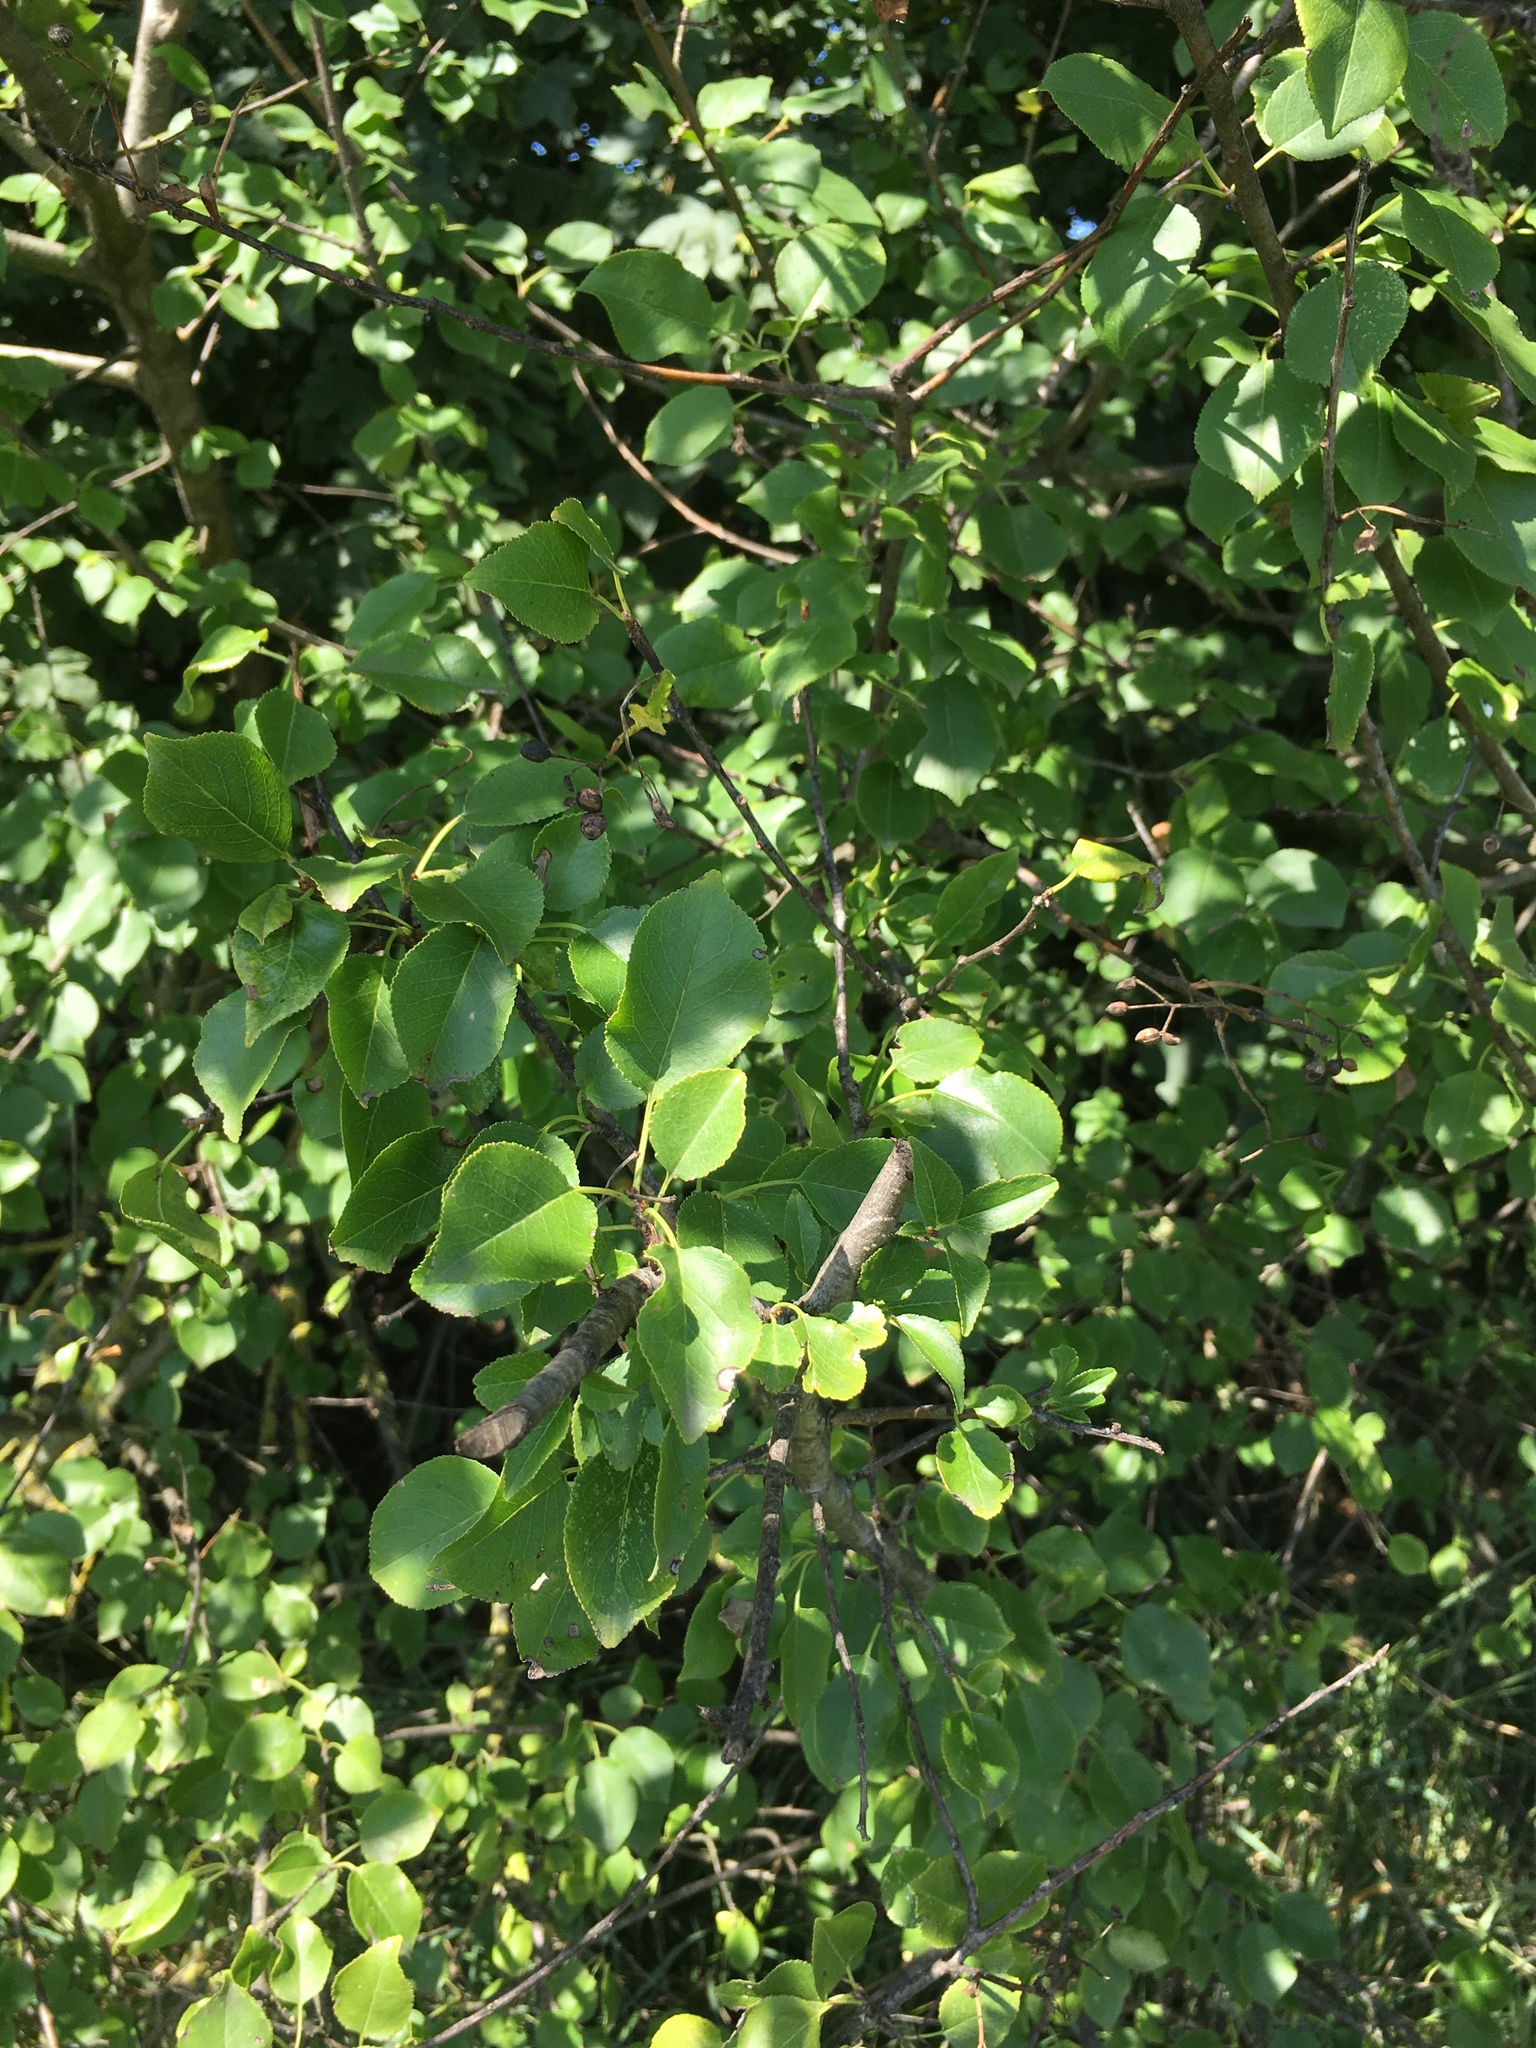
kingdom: Plantae
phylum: Tracheophyta
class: Magnoliopsida
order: Rosales
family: Rosaceae
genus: Prunus
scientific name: Prunus mahaleb
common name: Mahaleb cherry
